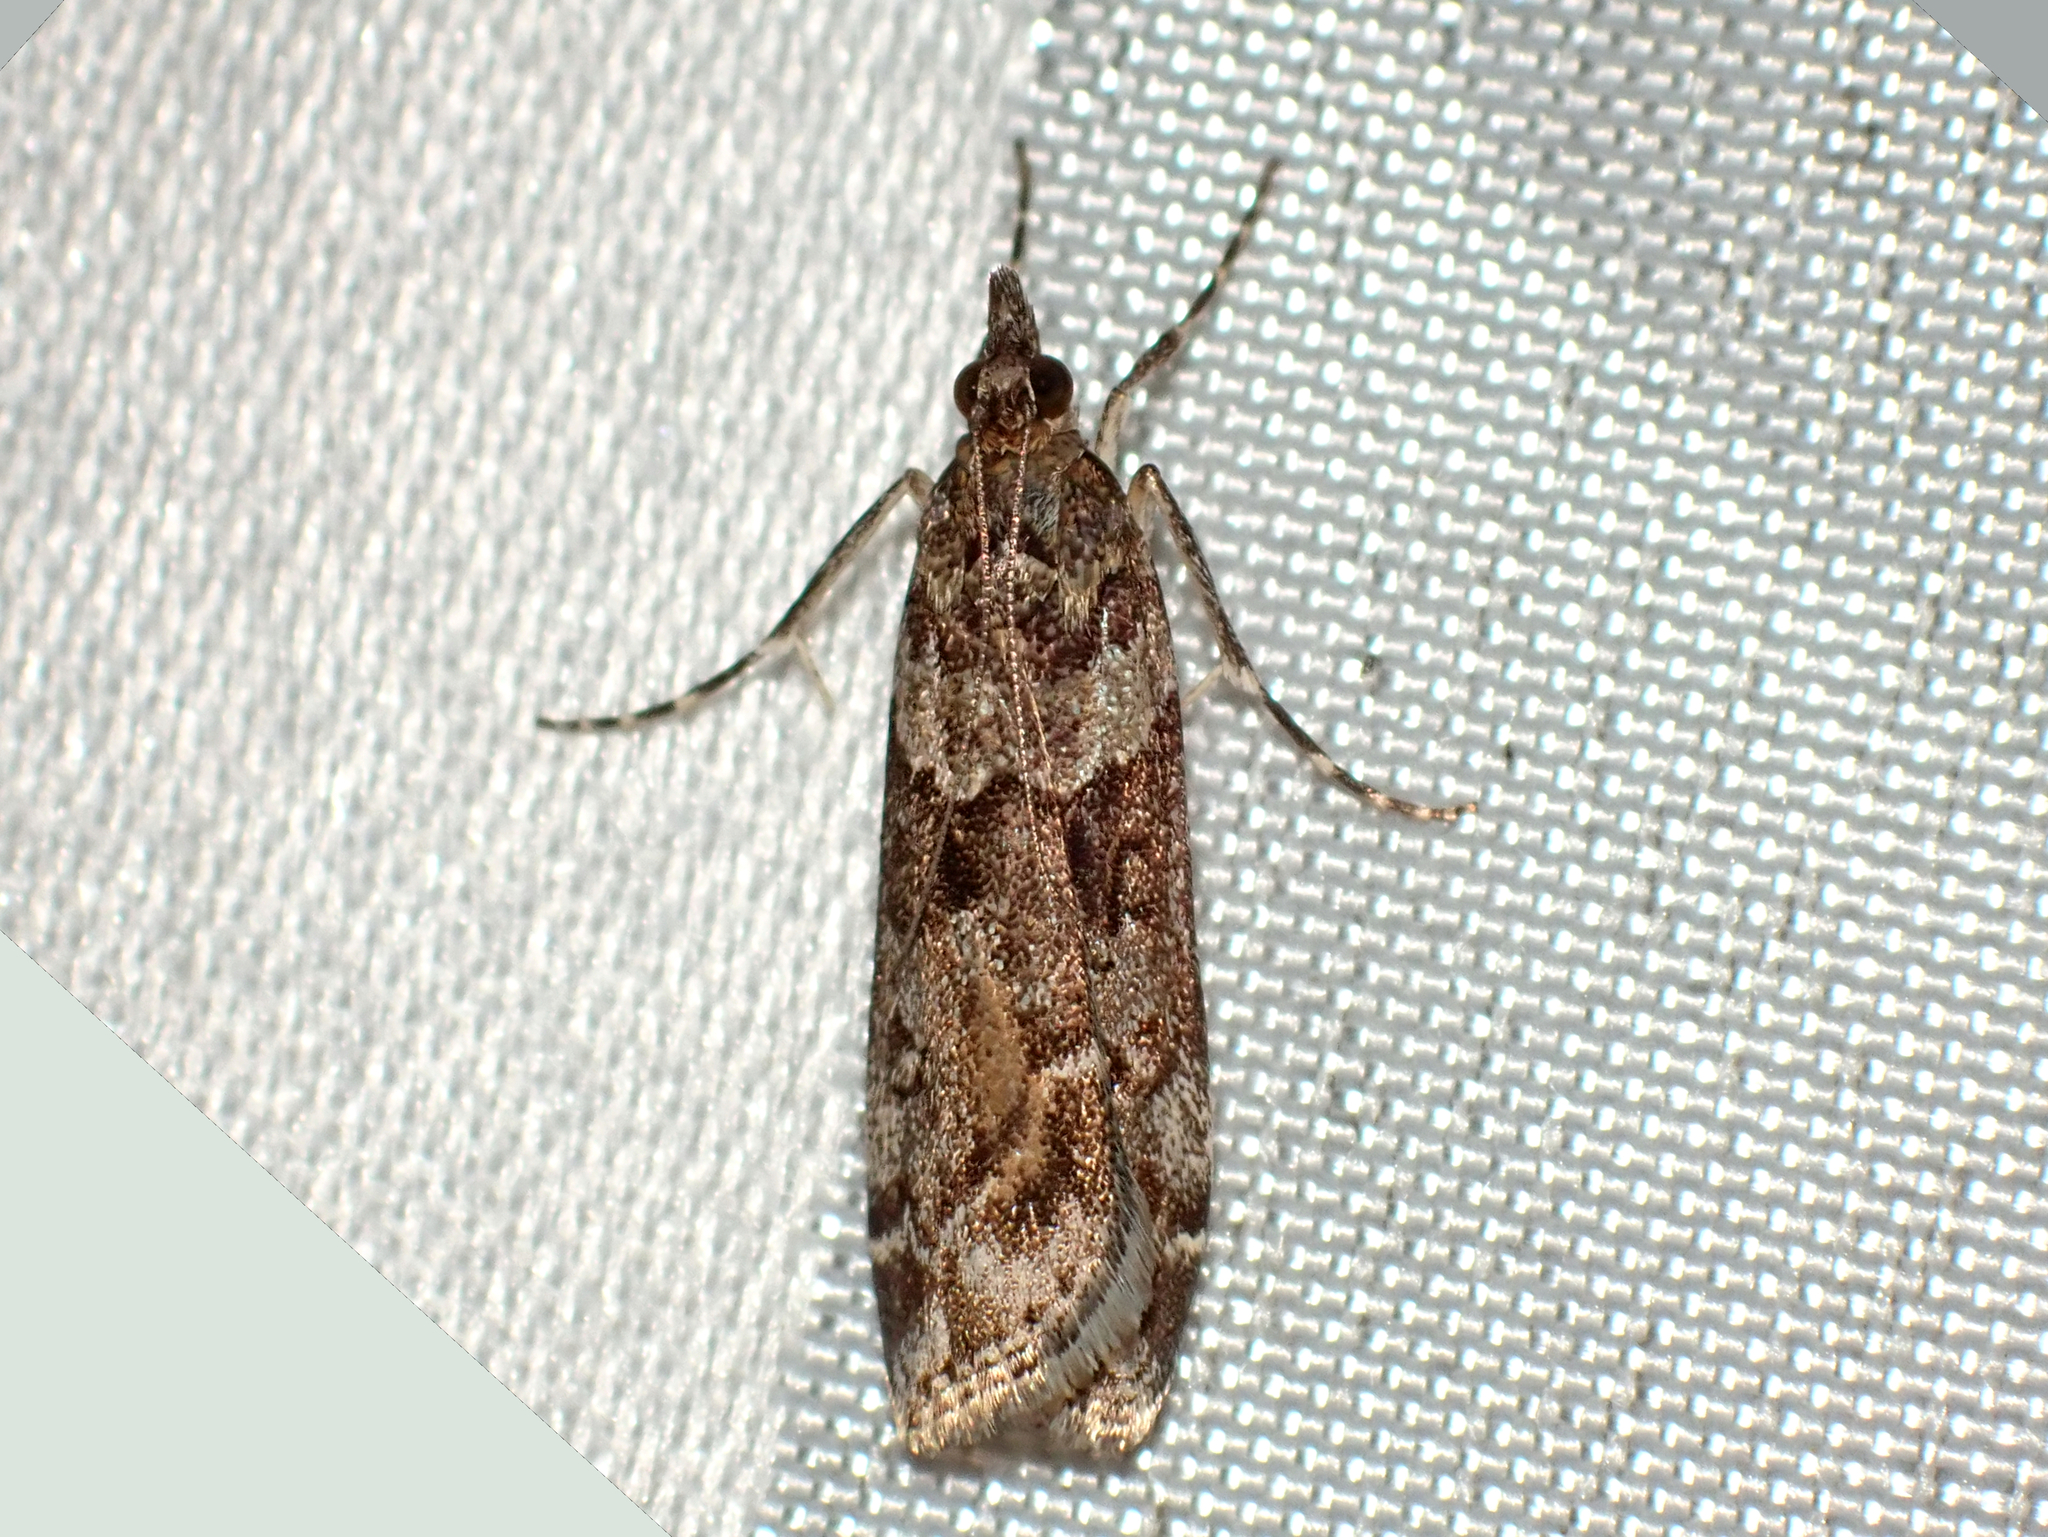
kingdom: Animalia
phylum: Arthropoda
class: Insecta
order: Lepidoptera
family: Crambidae
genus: Eudonia
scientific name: Eudonia submarginalis
